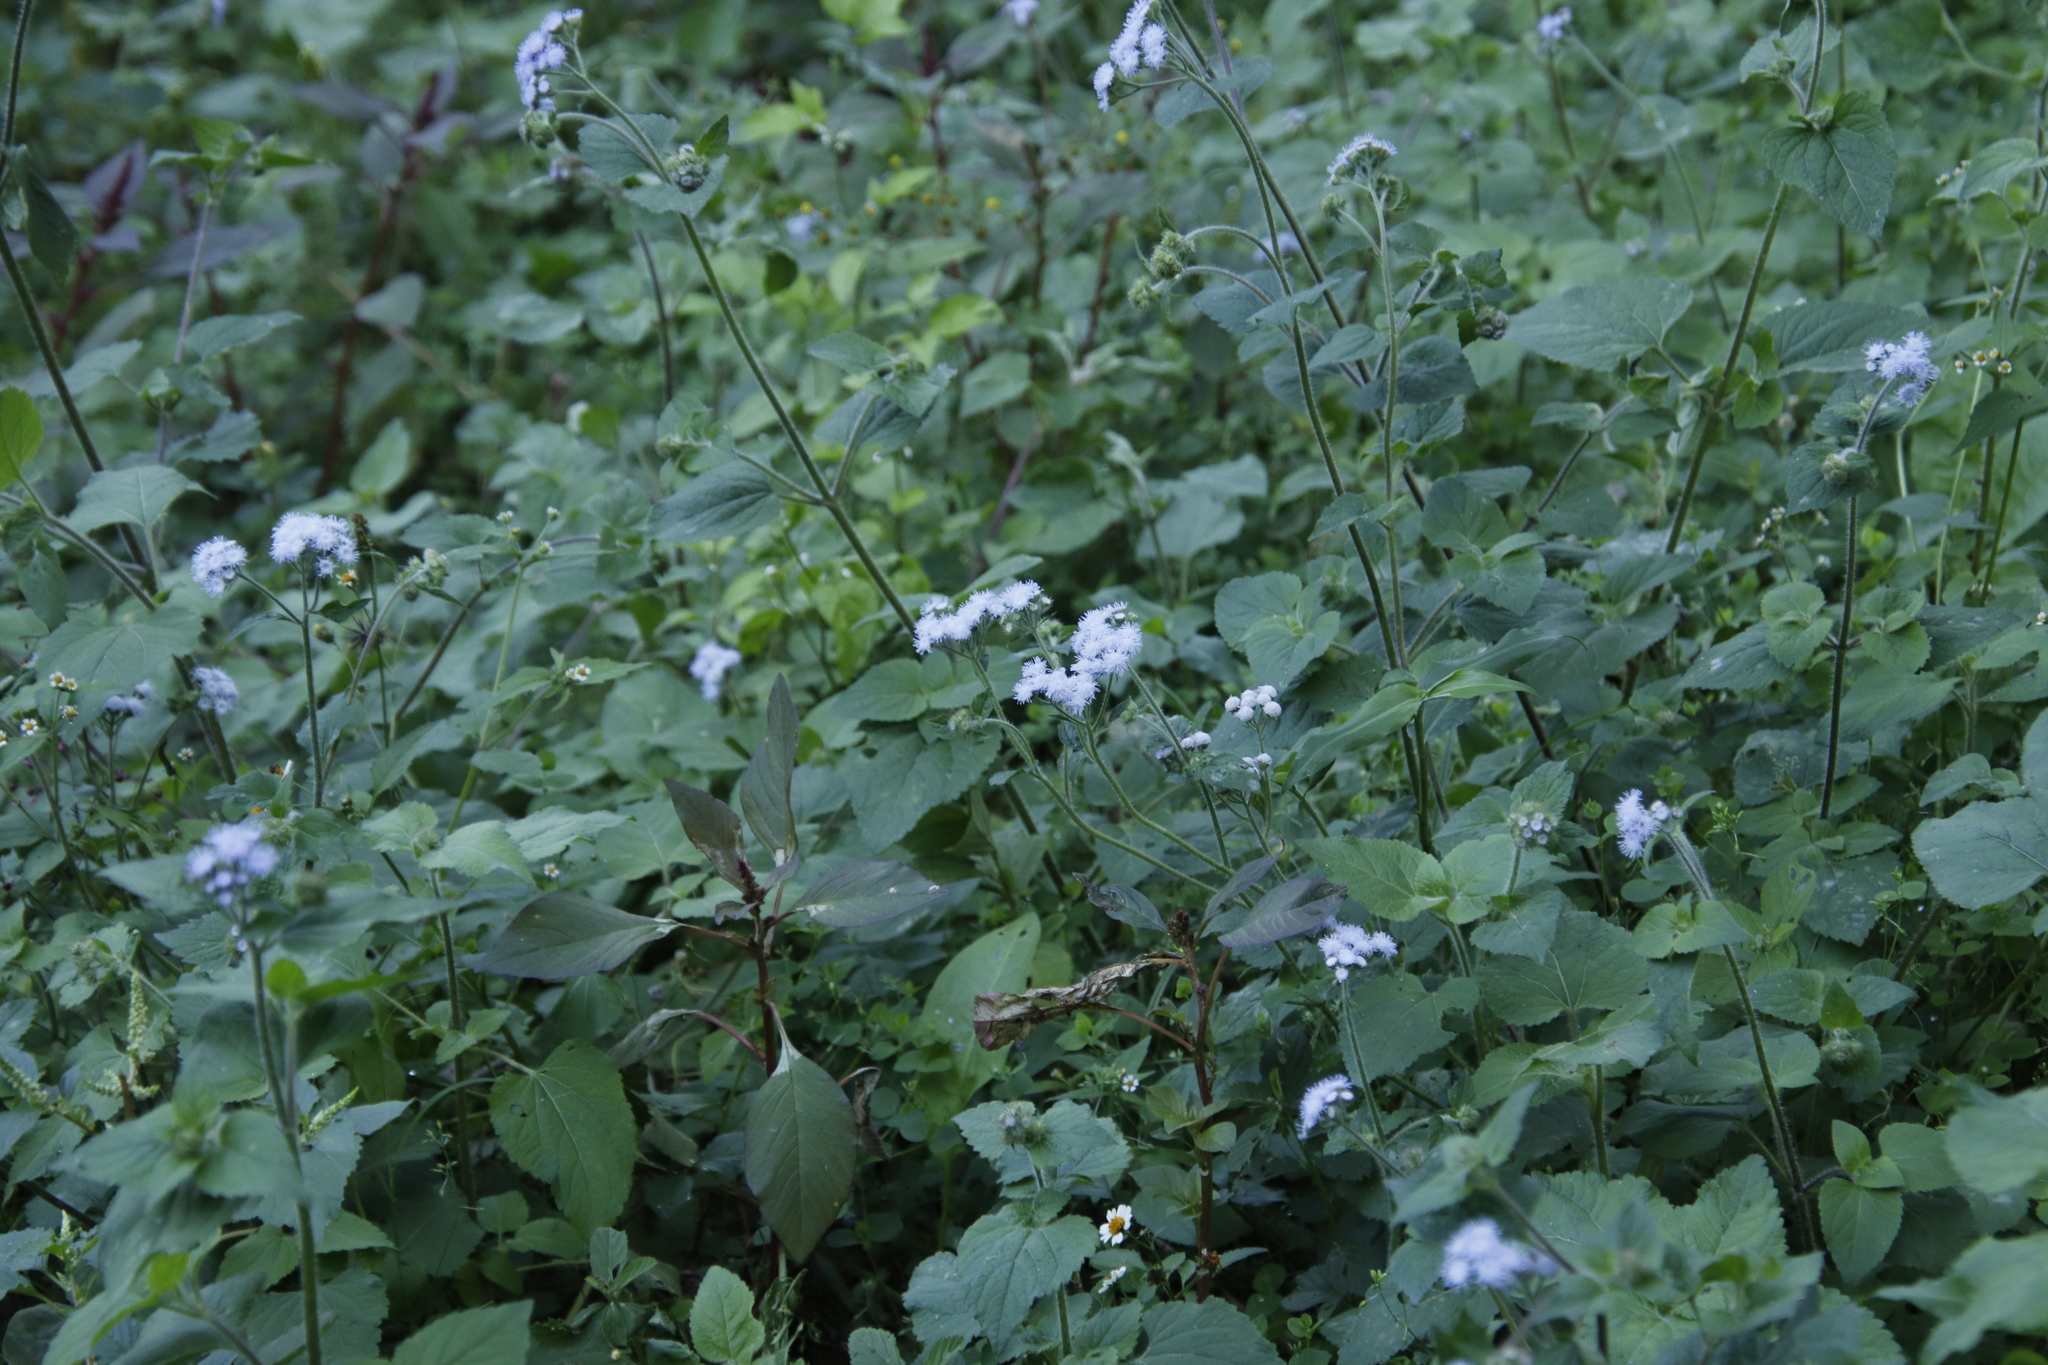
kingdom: Plantae
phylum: Tracheophyta
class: Magnoliopsida
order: Asterales
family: Asteraceae
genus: Ageratum
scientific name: Ageratum houstonianum
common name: Bluemink
